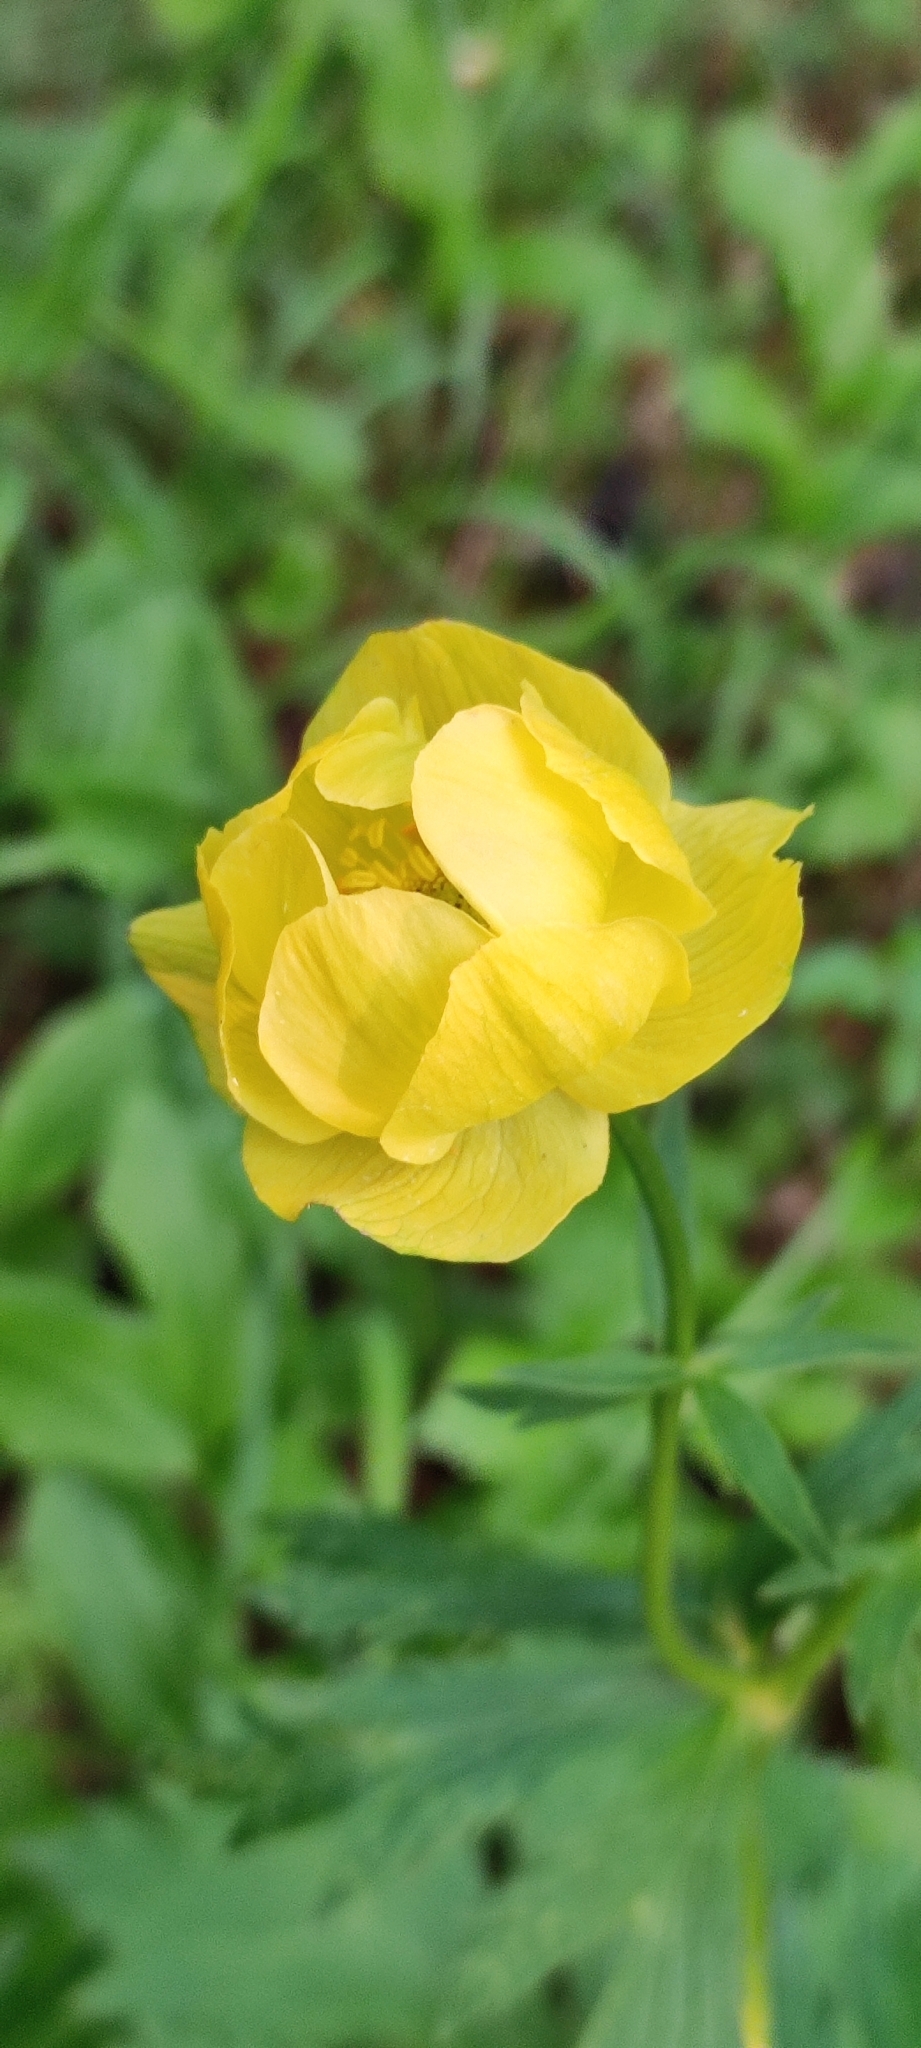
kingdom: Plantae
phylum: Tracheophyta
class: Magnoliopsida
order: Ranunculales
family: Ranunculaceae
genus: Trollius
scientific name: Trollius europaeus
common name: European globeflower
